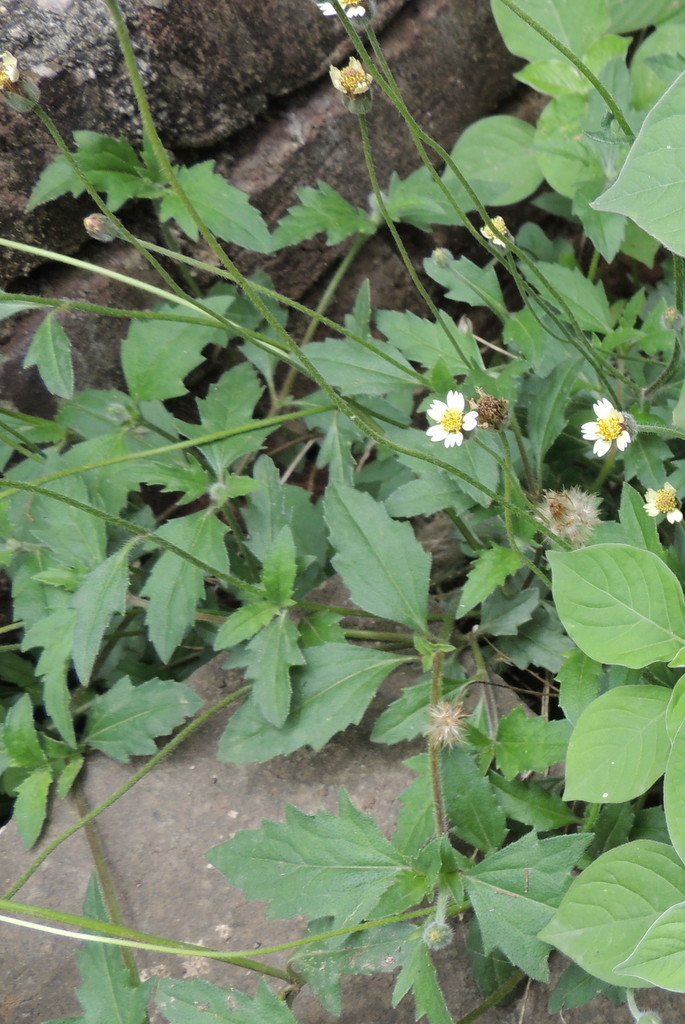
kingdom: Plantae
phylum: Tracheophyta
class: Magnoliopsida
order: Asterales
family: Asteraceae
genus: Tridax
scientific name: Tridax procumbens
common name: Coatbuttons
